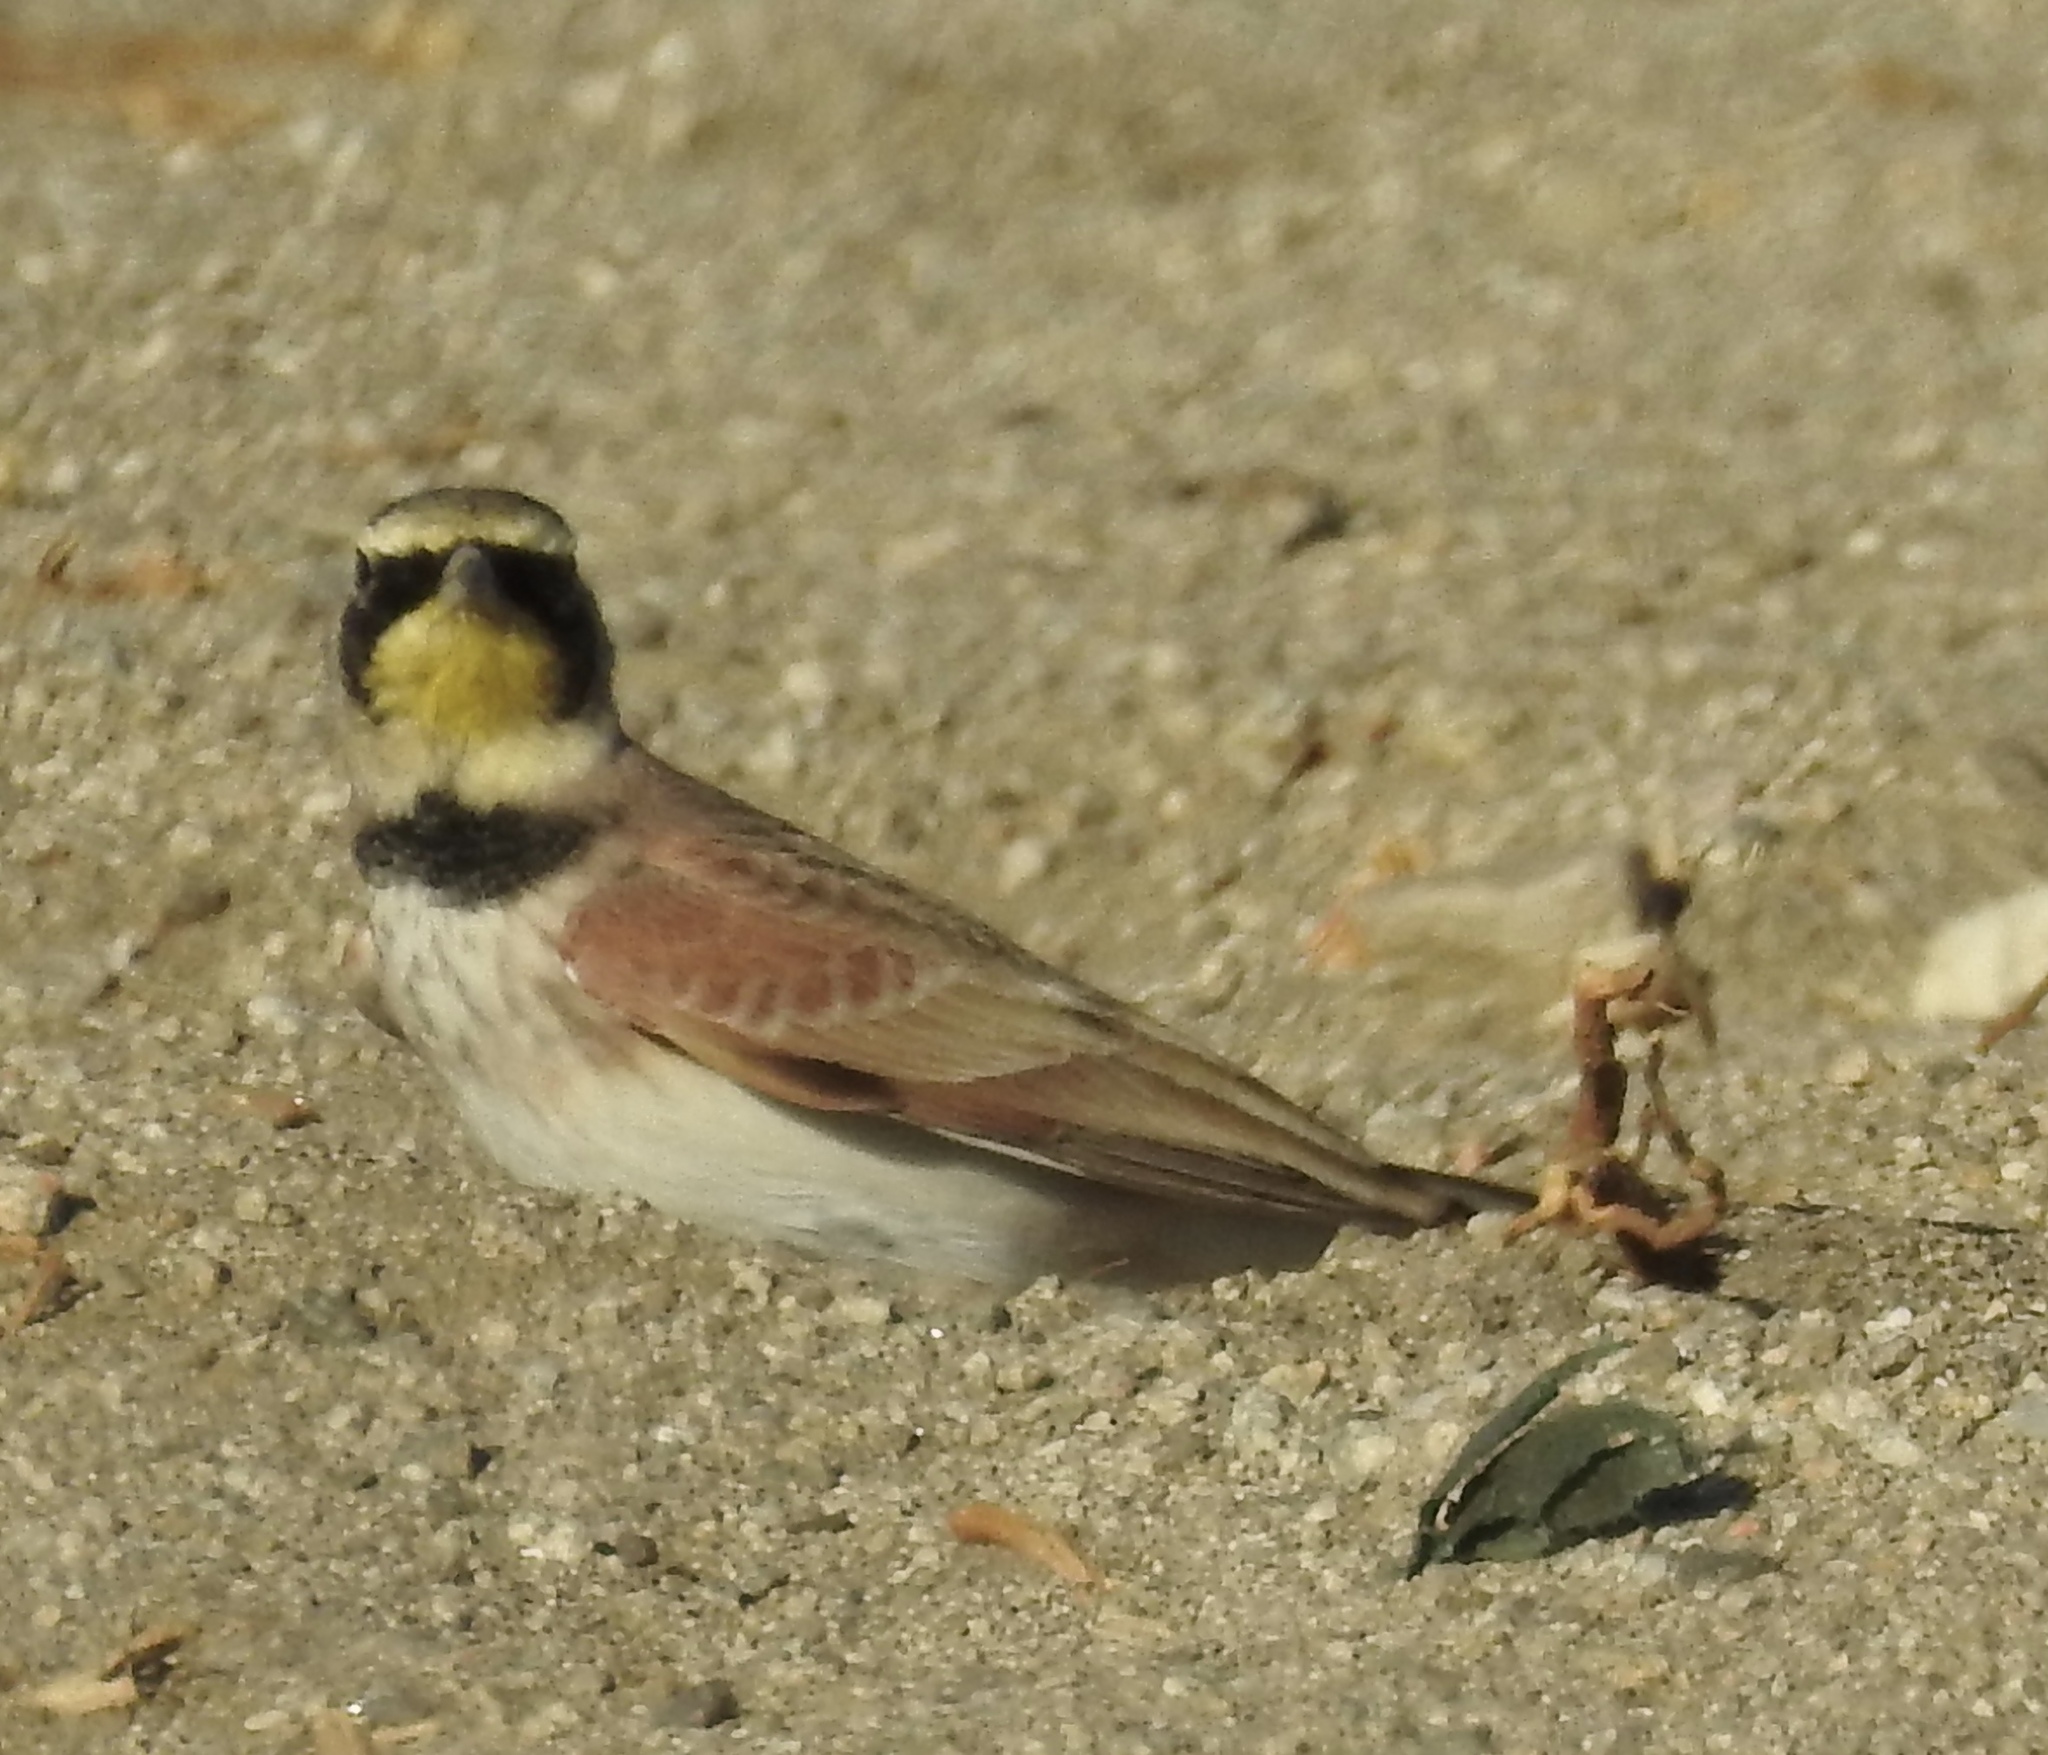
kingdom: Animalia
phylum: Chordata
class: Aves
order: Passeriformes
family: Alaudidae
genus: Eremophila
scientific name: Eremophila alpestris
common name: Horned lark
